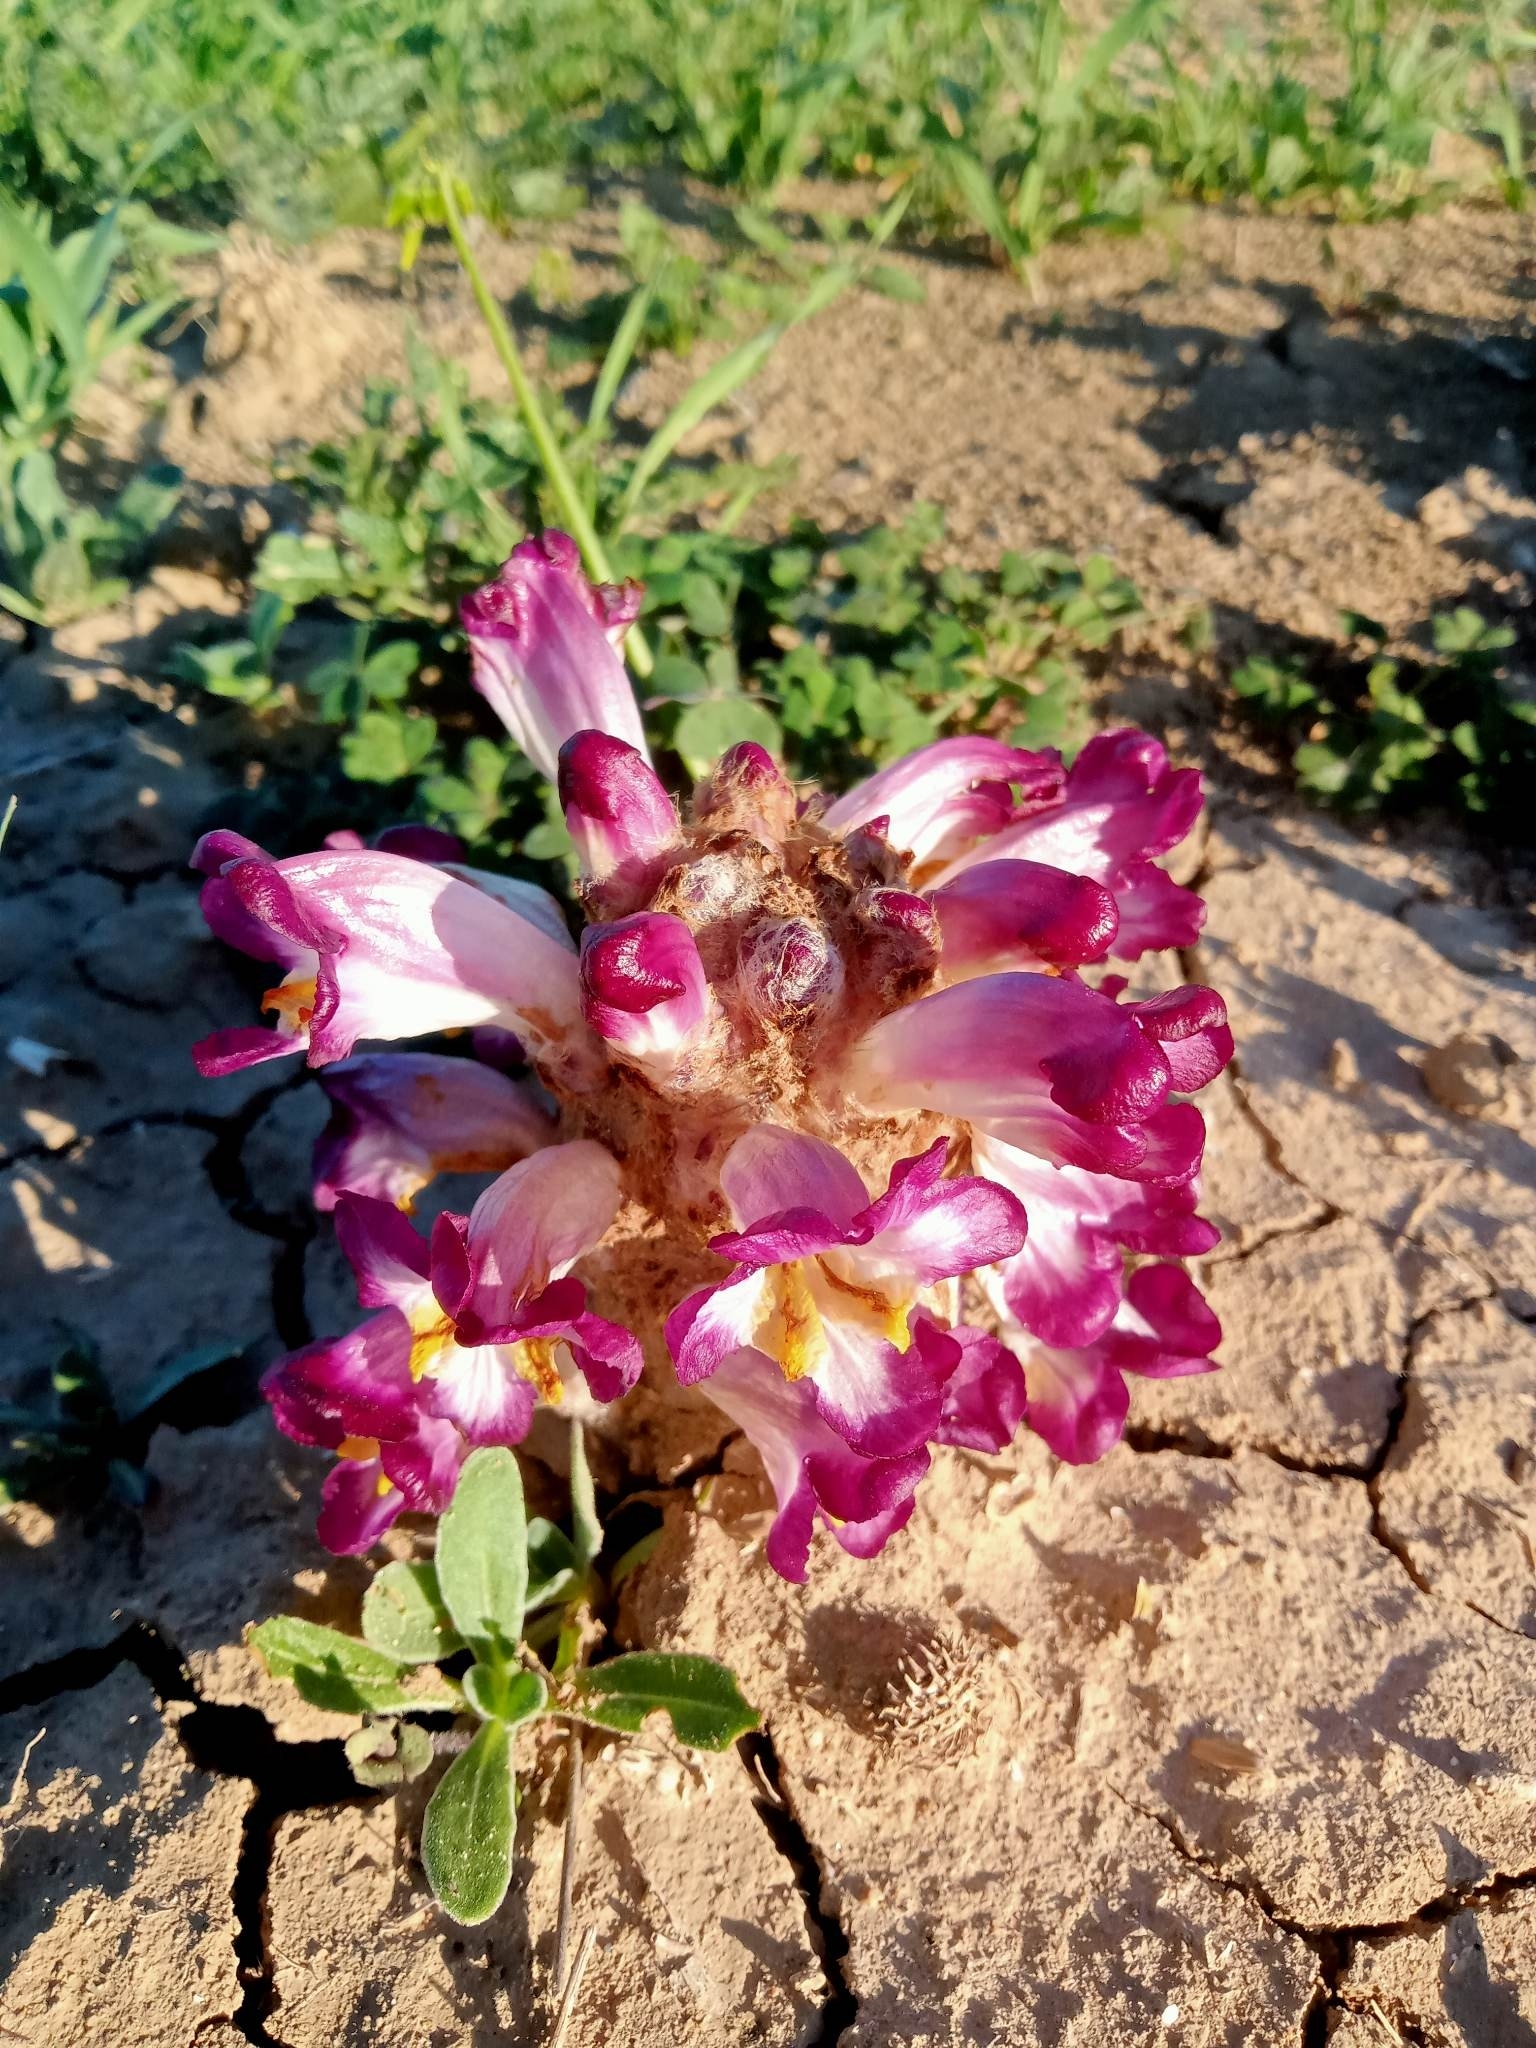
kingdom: Plantae
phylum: Tracheophyta
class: Magnoliopsida
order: Lamiales
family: Orobanchaceae
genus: Cistanche
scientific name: Cistanche mauritanica
